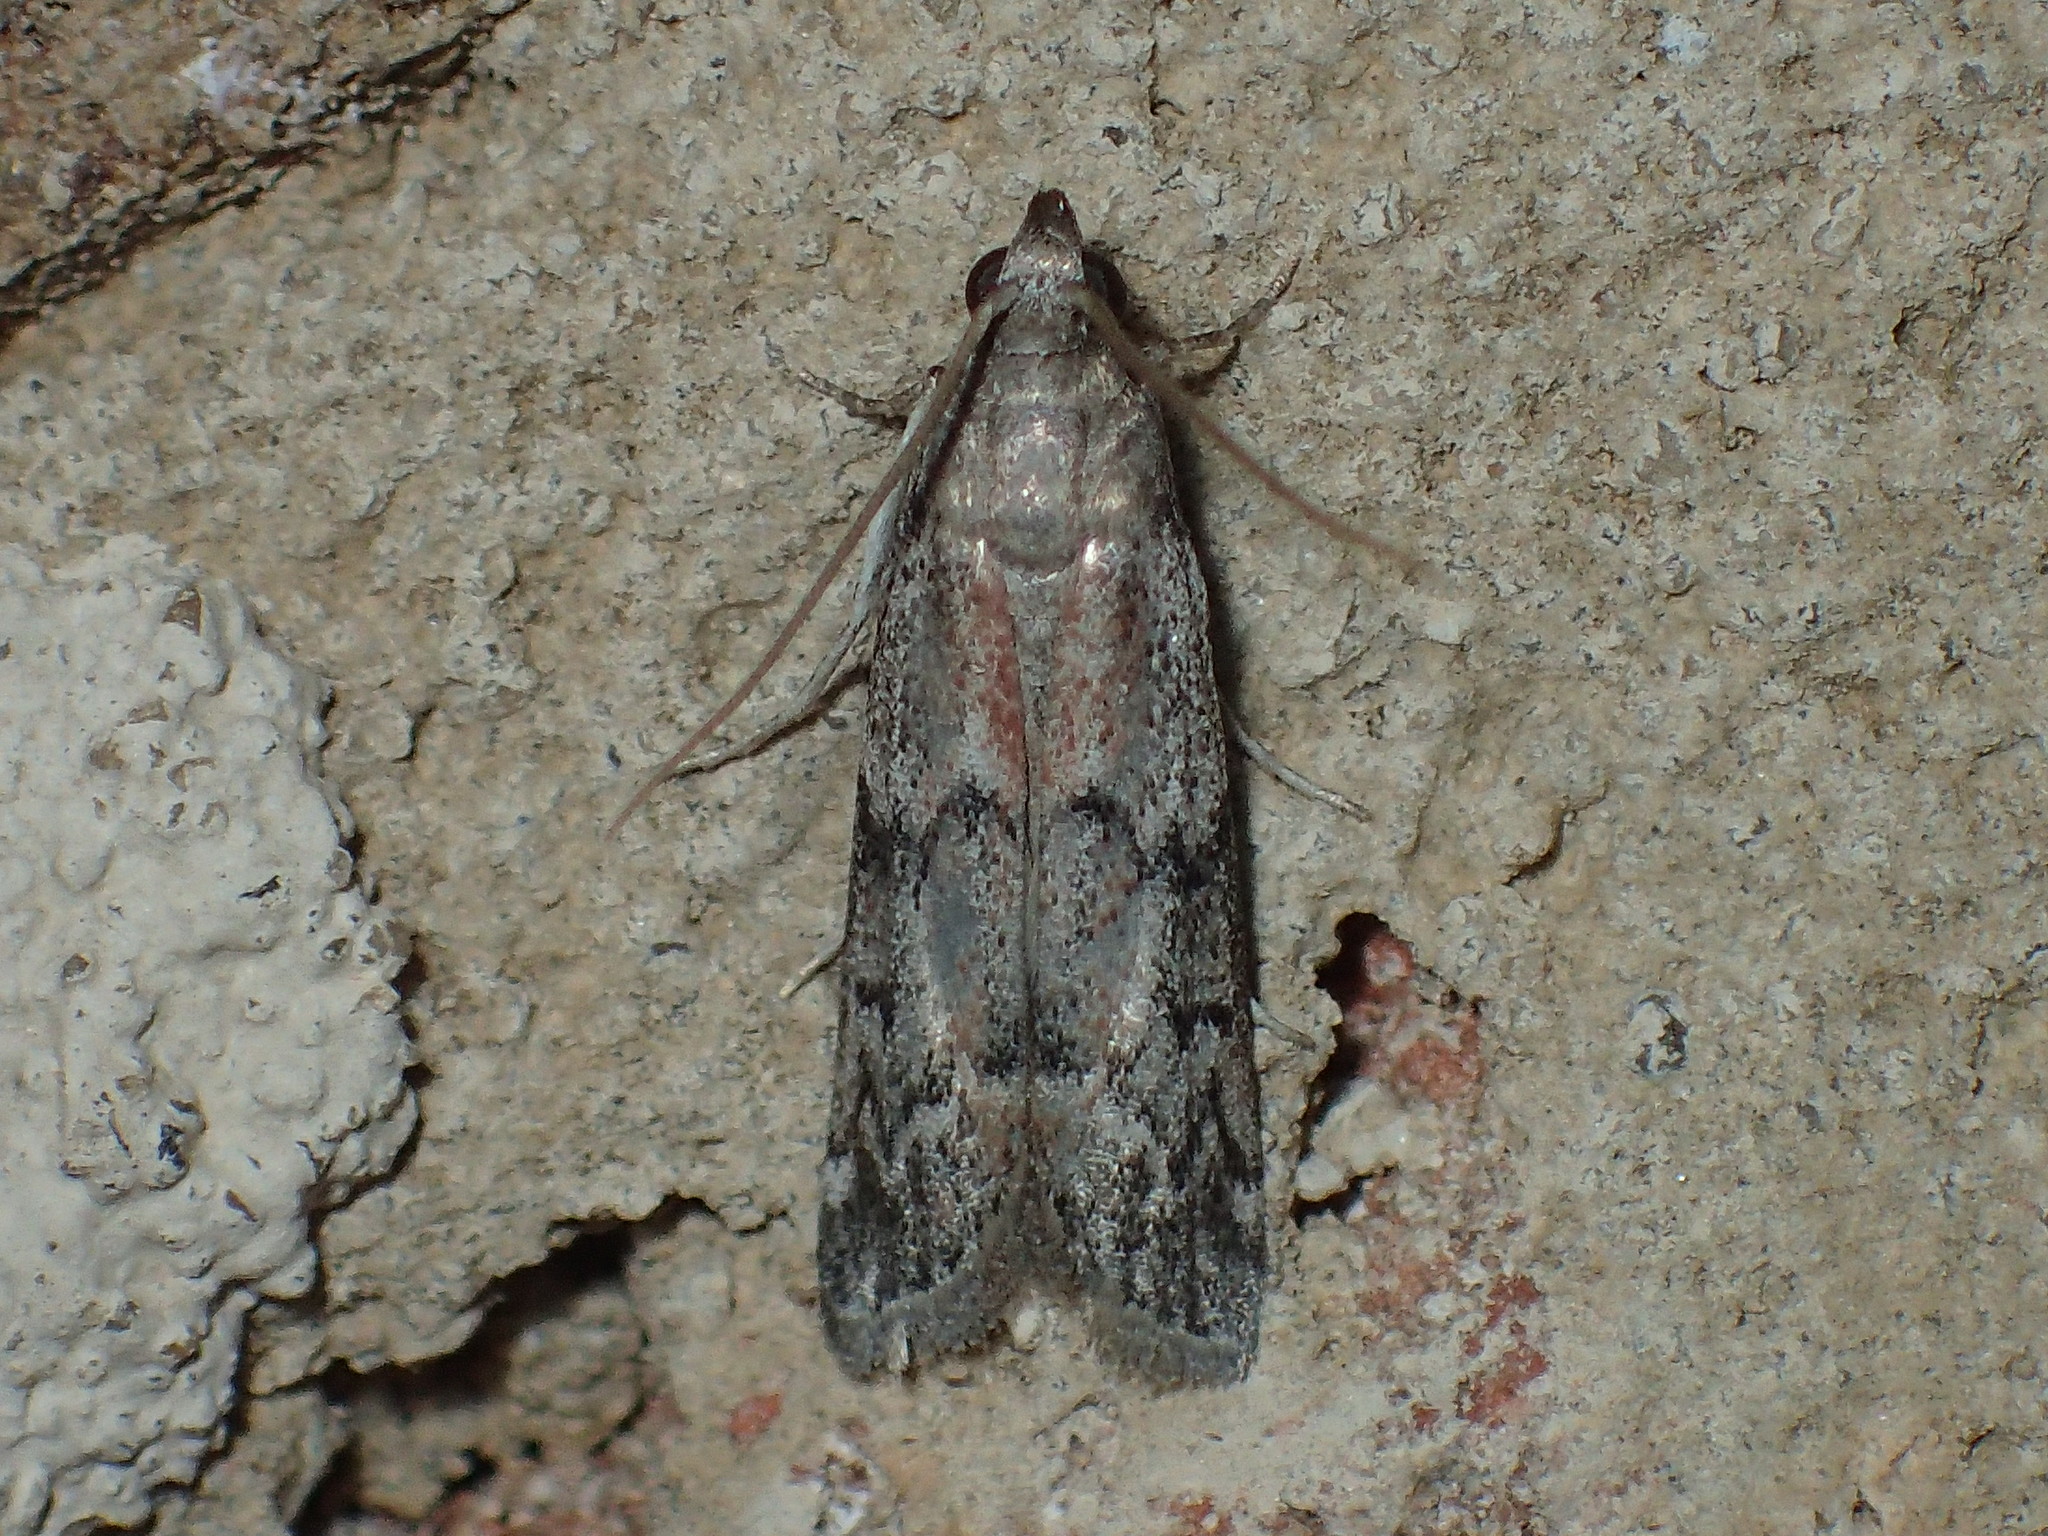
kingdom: Animalia
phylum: Arthropoda
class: Insecta
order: Lepidoptera
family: Pyralidae
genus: Vitula
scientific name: Vitula edmandsii
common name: Dried fruit moth
